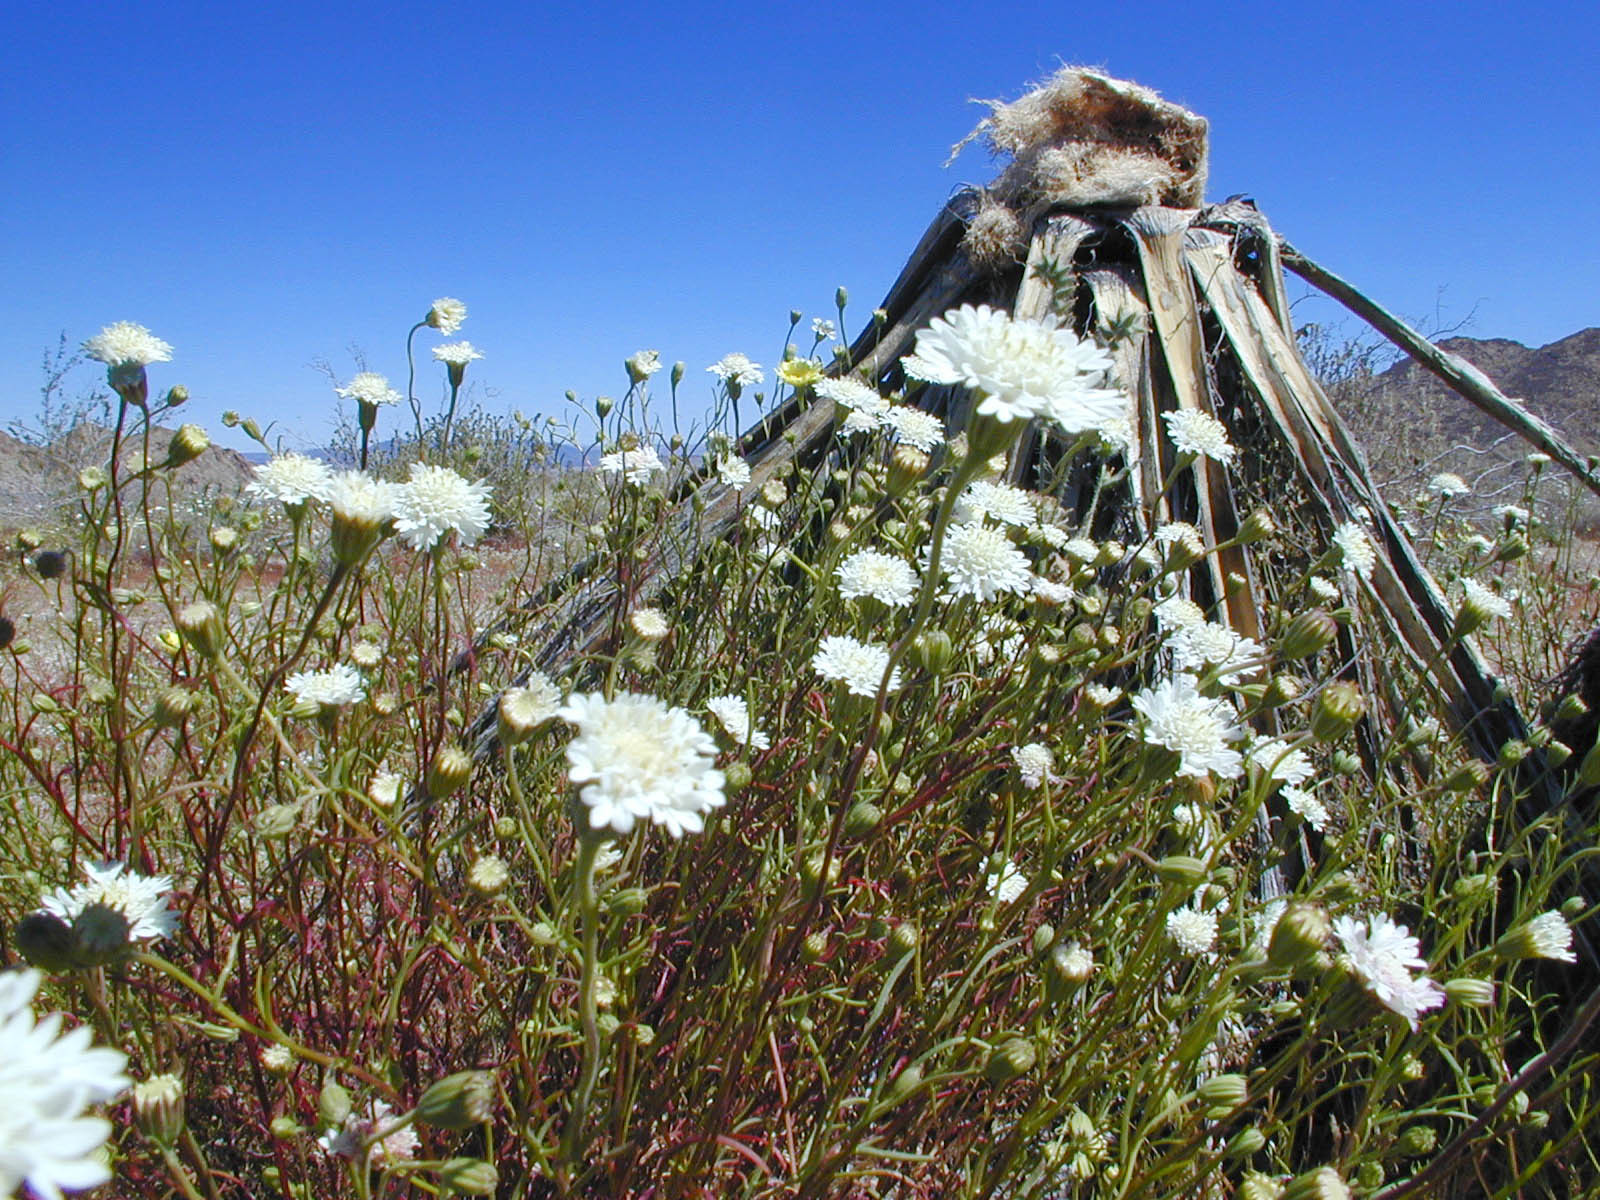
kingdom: Plantae
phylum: Tracheophyta
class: Magnoliopsida
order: Asterales
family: Asteraceae
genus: Chaenactis
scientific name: Chaenactis fremontii
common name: Fremont pincushion
